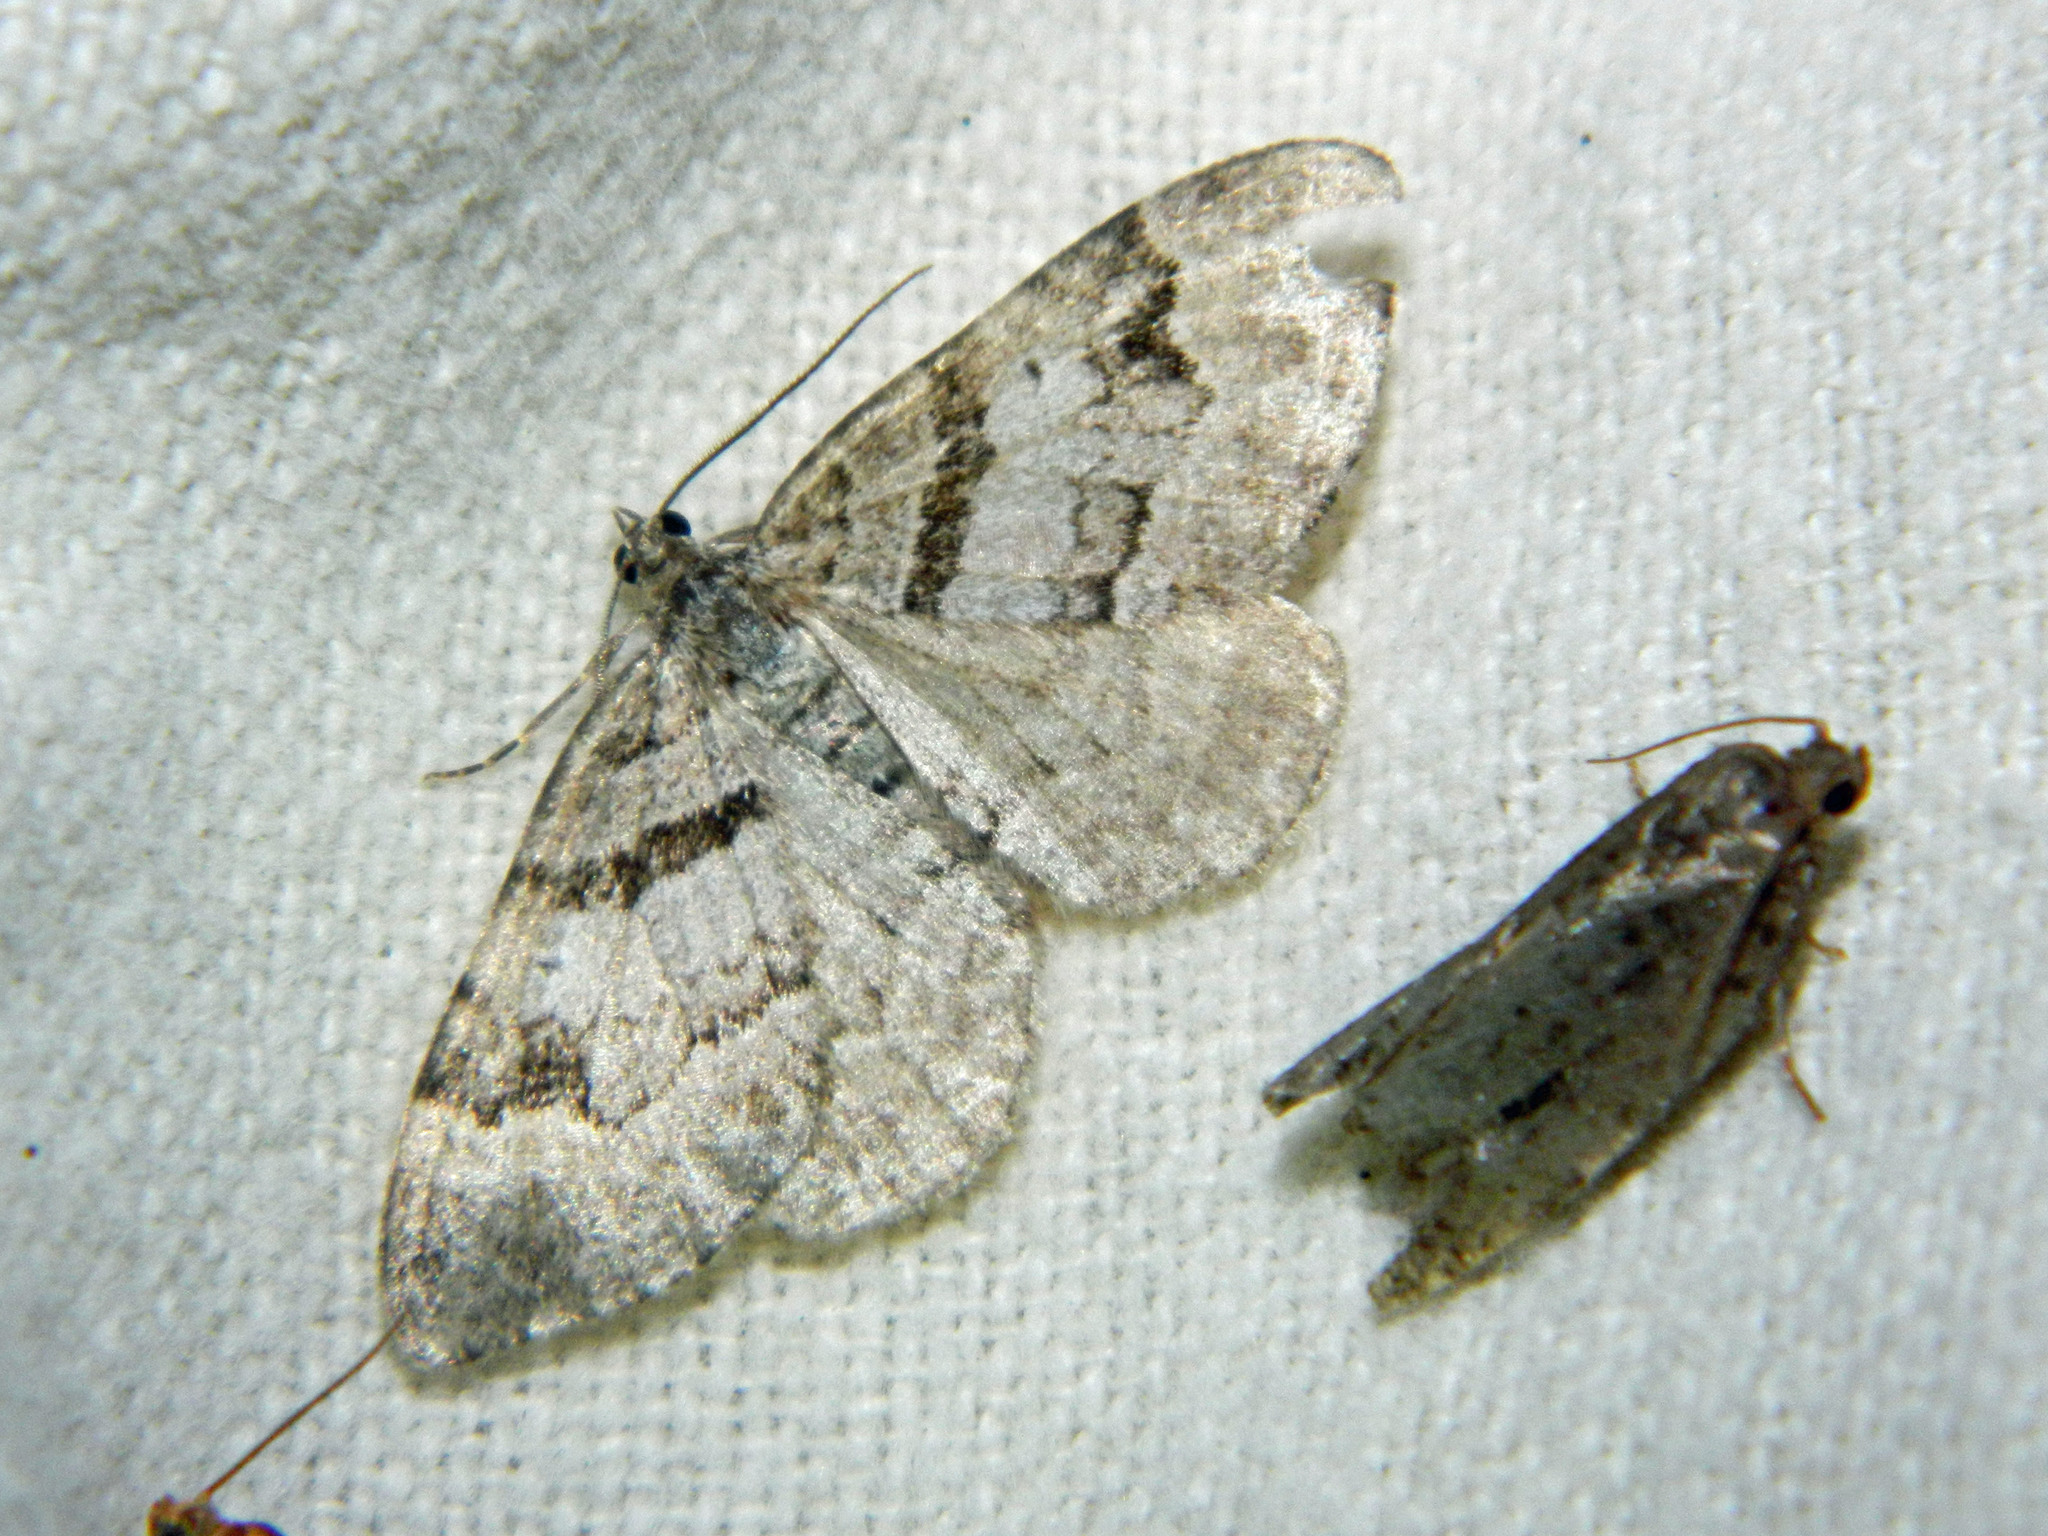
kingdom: Animalia
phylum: Arthropoda
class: Insecta
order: Lepidoptera
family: Geometridae
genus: Xanthorhoe
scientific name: Xanthorhoe abrasaria
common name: Northern carpet
